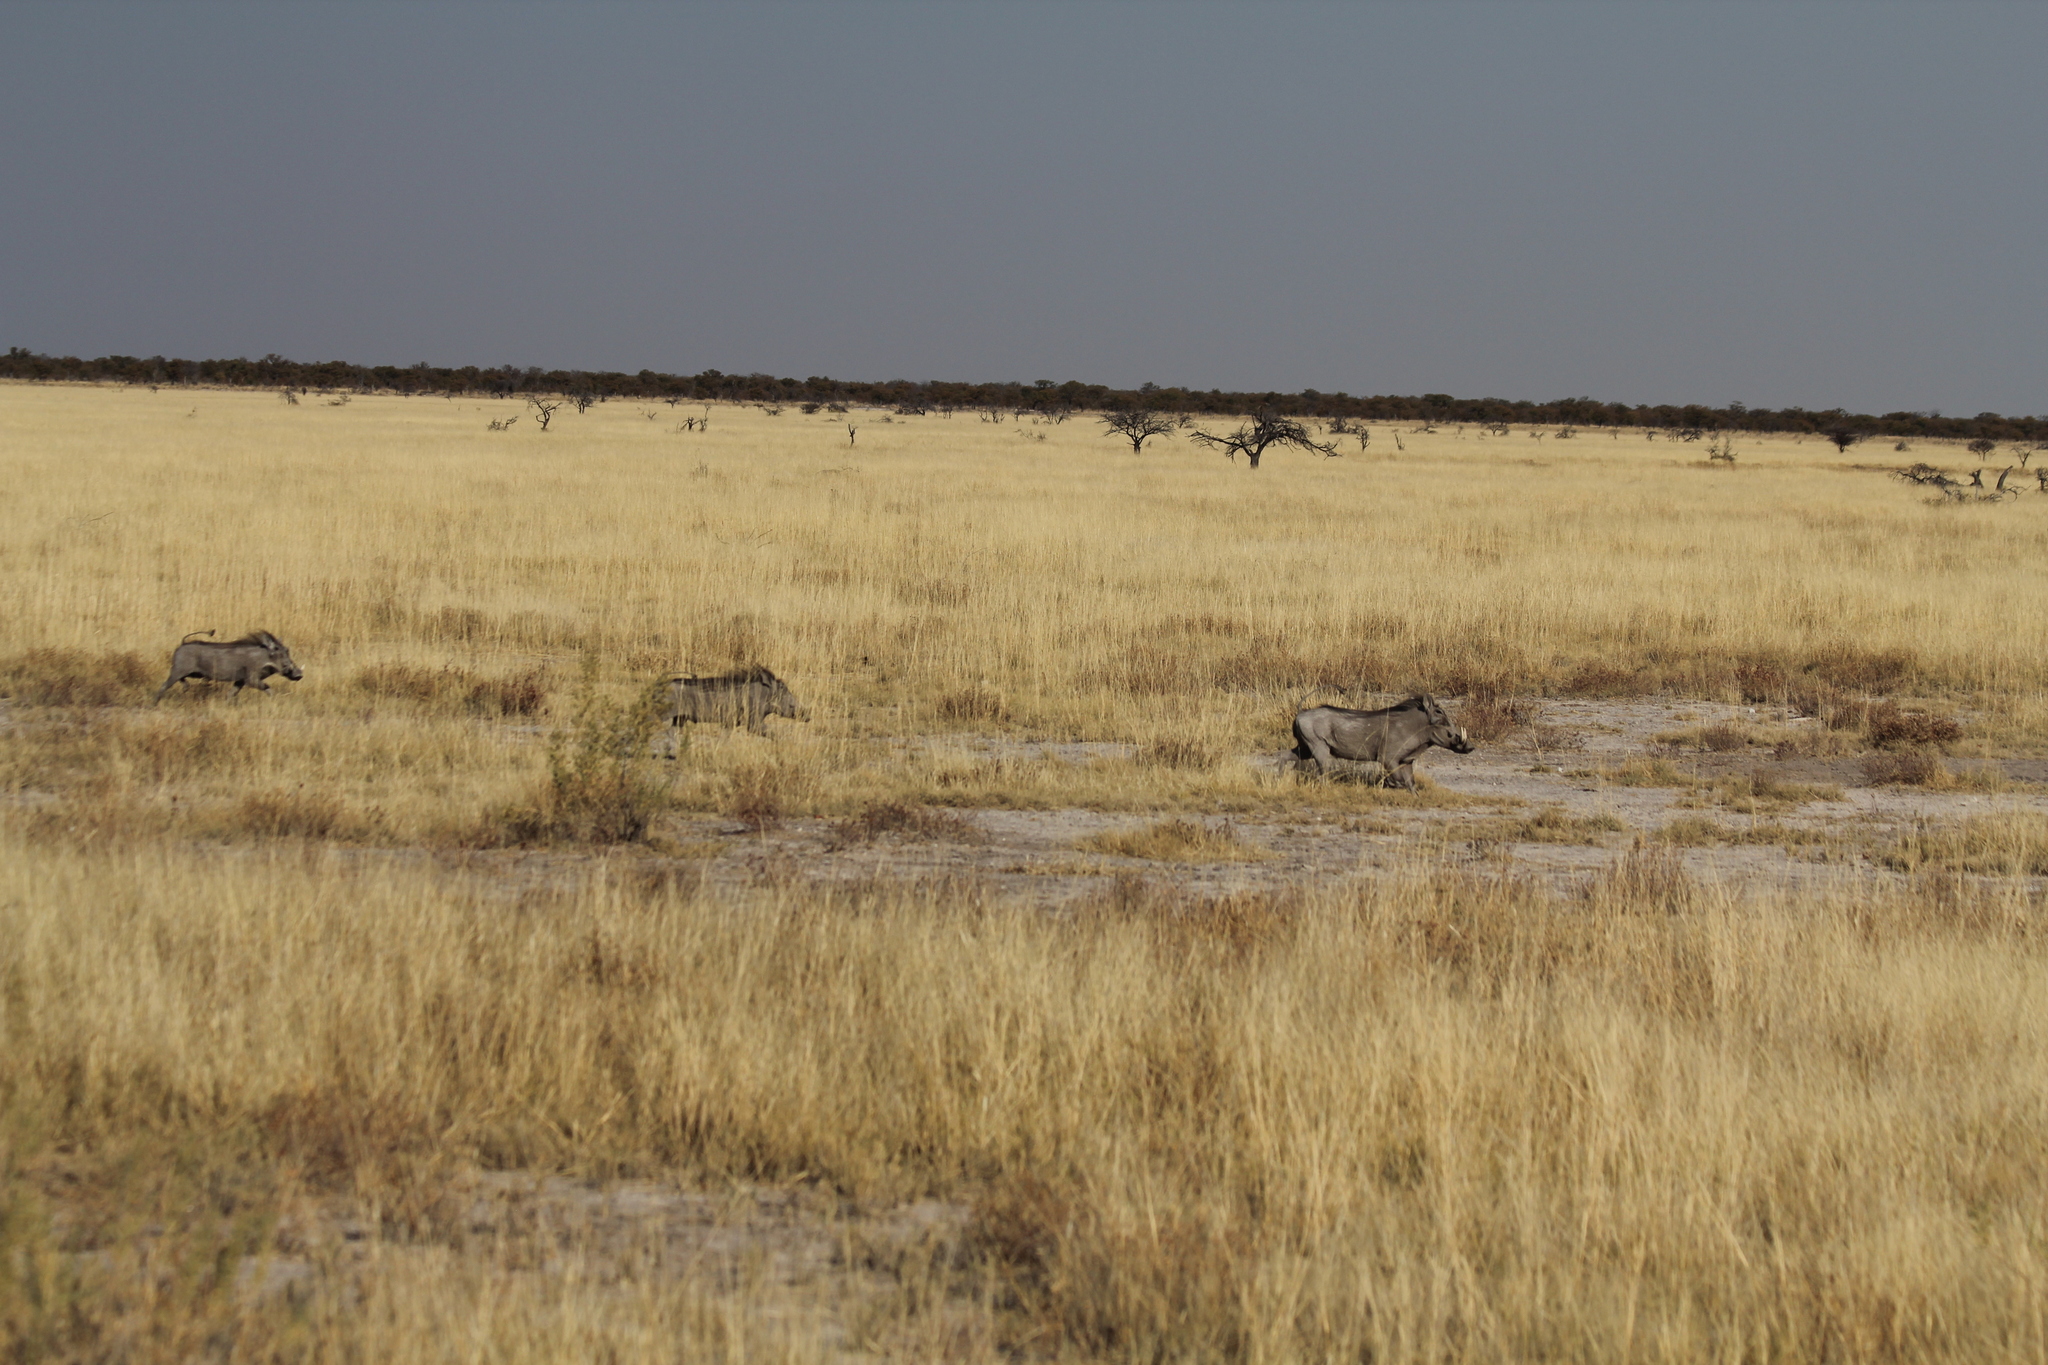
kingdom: Animalia
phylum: Chordata
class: Mammalia
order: Artiodactyla
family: Suidae
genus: Phacochoerus
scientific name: Phacochoerus africanus
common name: Common warthog
